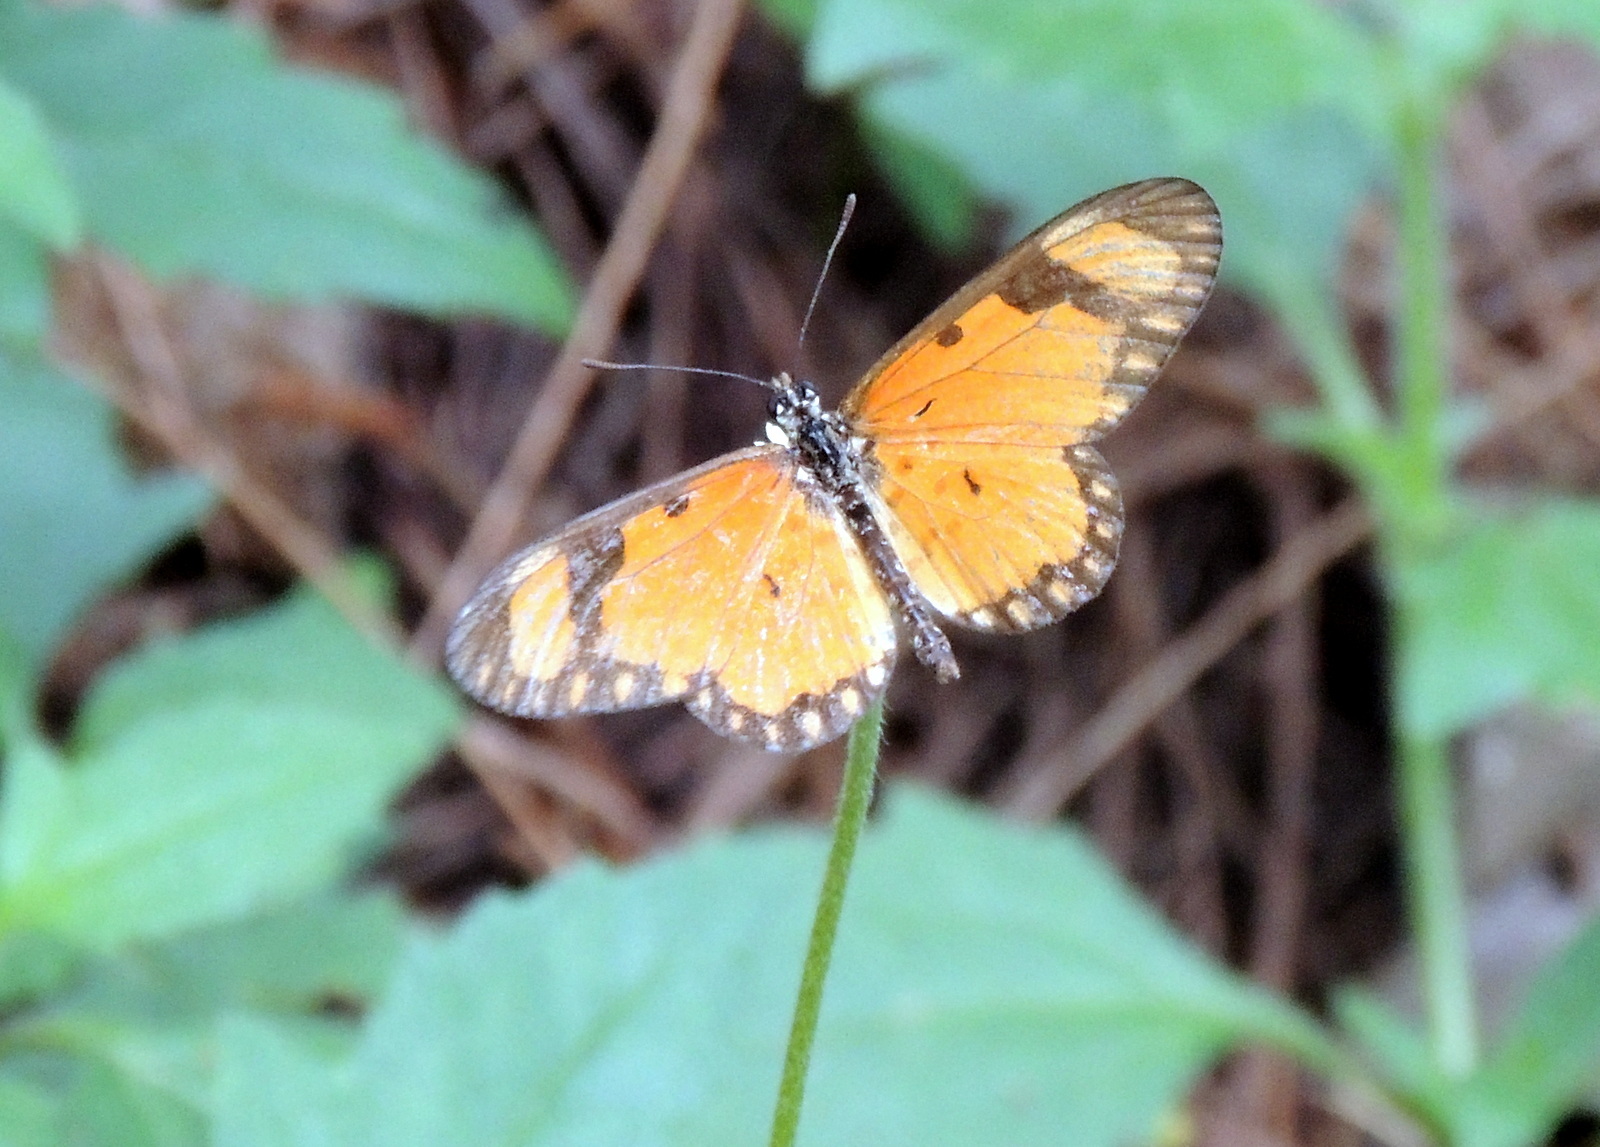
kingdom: Animalia
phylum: Arthropoda
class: Insecta
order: Lepidoptera
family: Nymphalidae
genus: Acraea
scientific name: Acraea Telchinia serena
